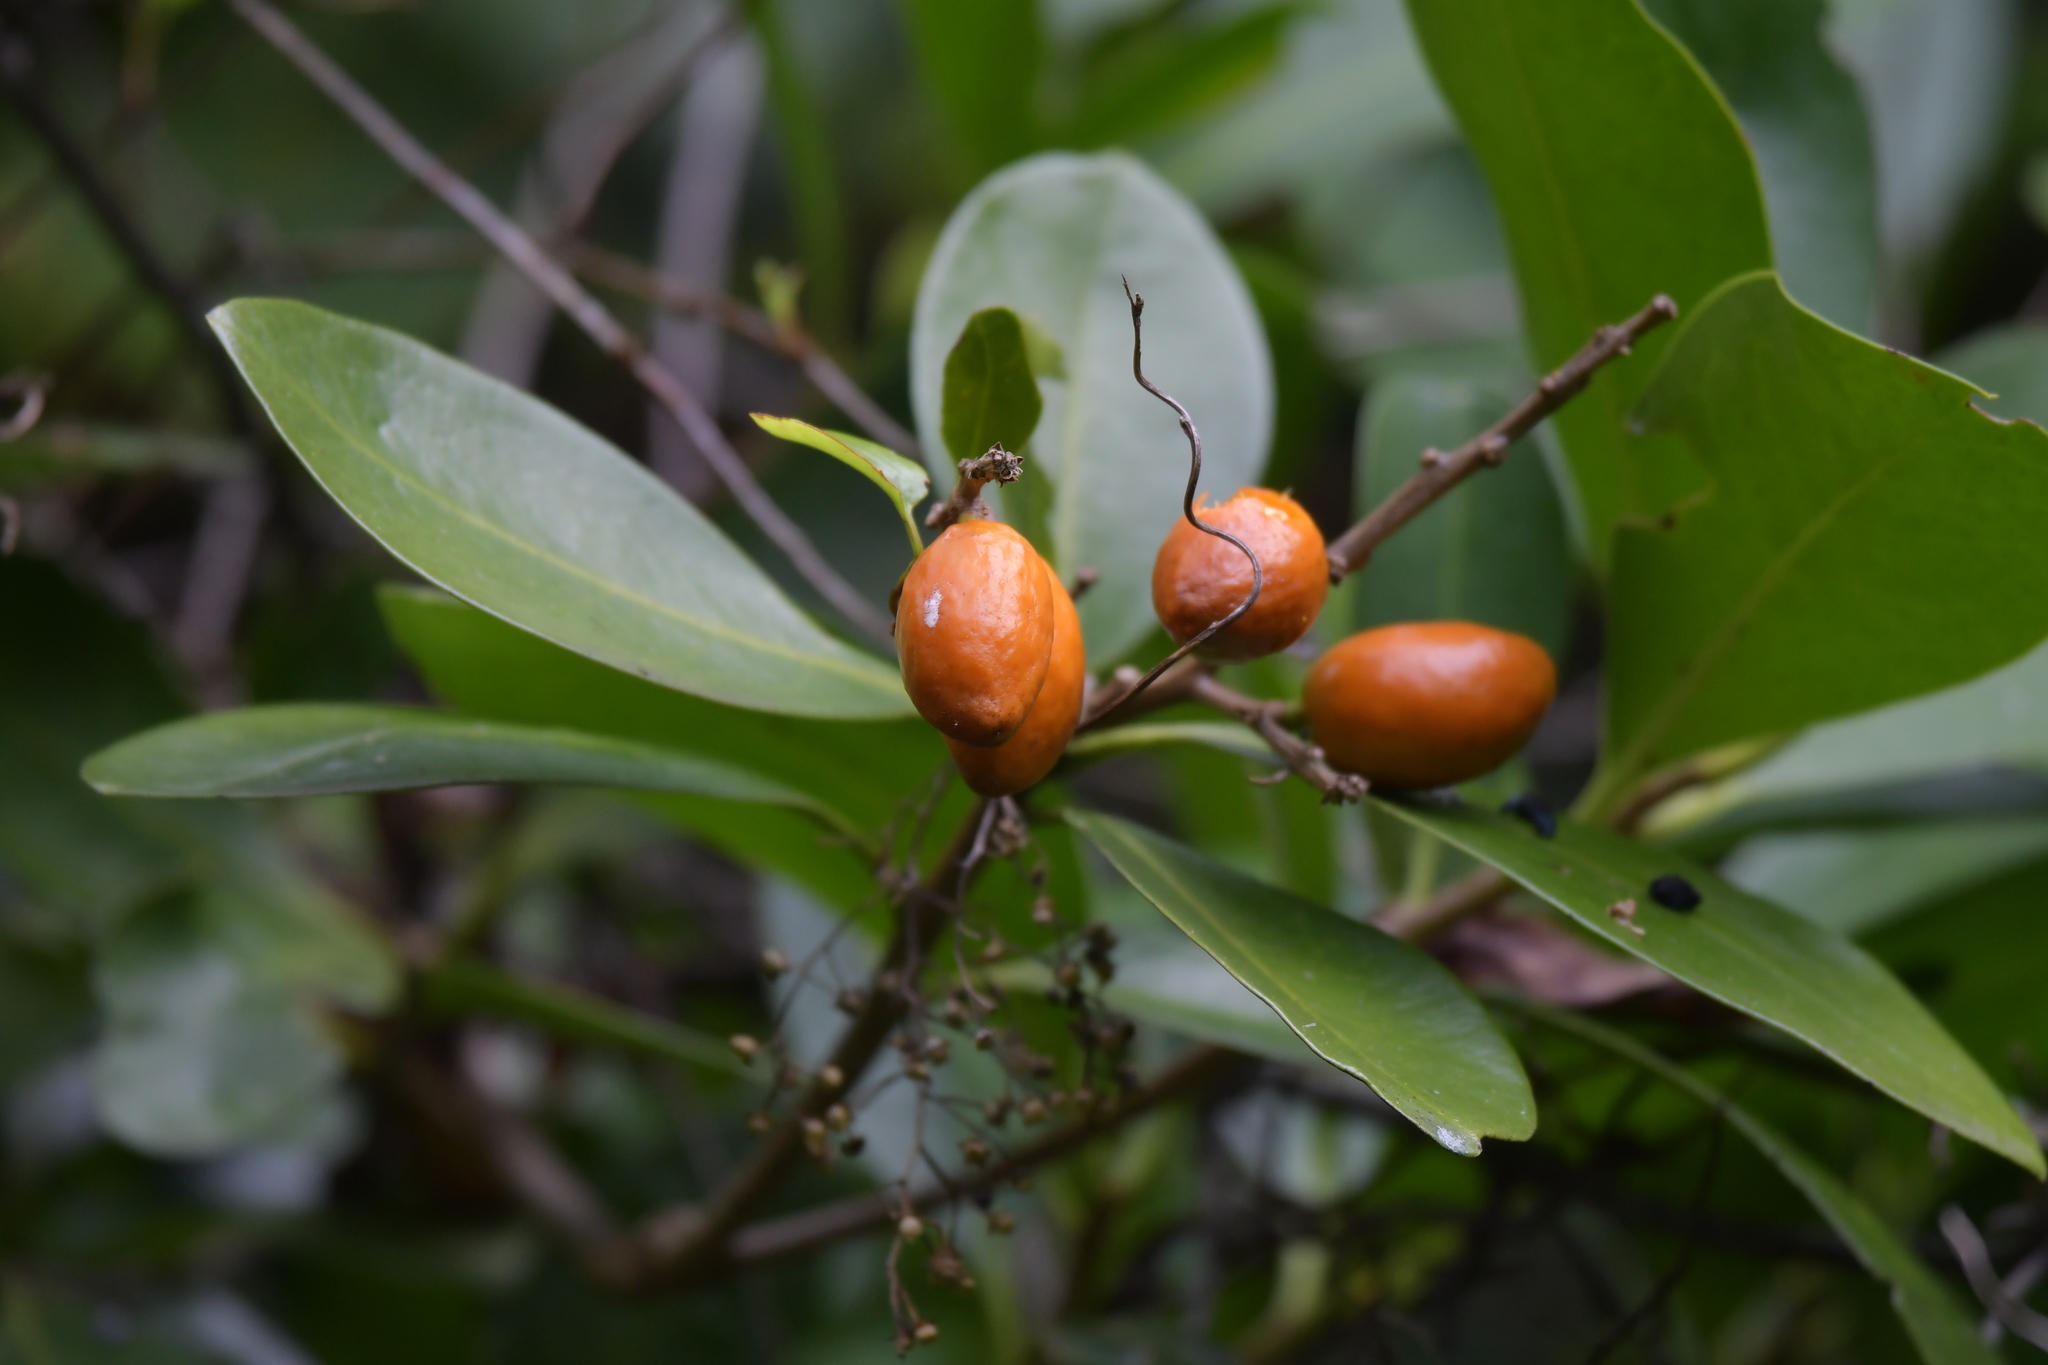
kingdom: Plantae
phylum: Tracheophyta
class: Magnoliopsida
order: Cucurbitales
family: Corynocarpaceae
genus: Corynocarpus
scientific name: Corynocarpus laevigatus
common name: New zealand laurel
